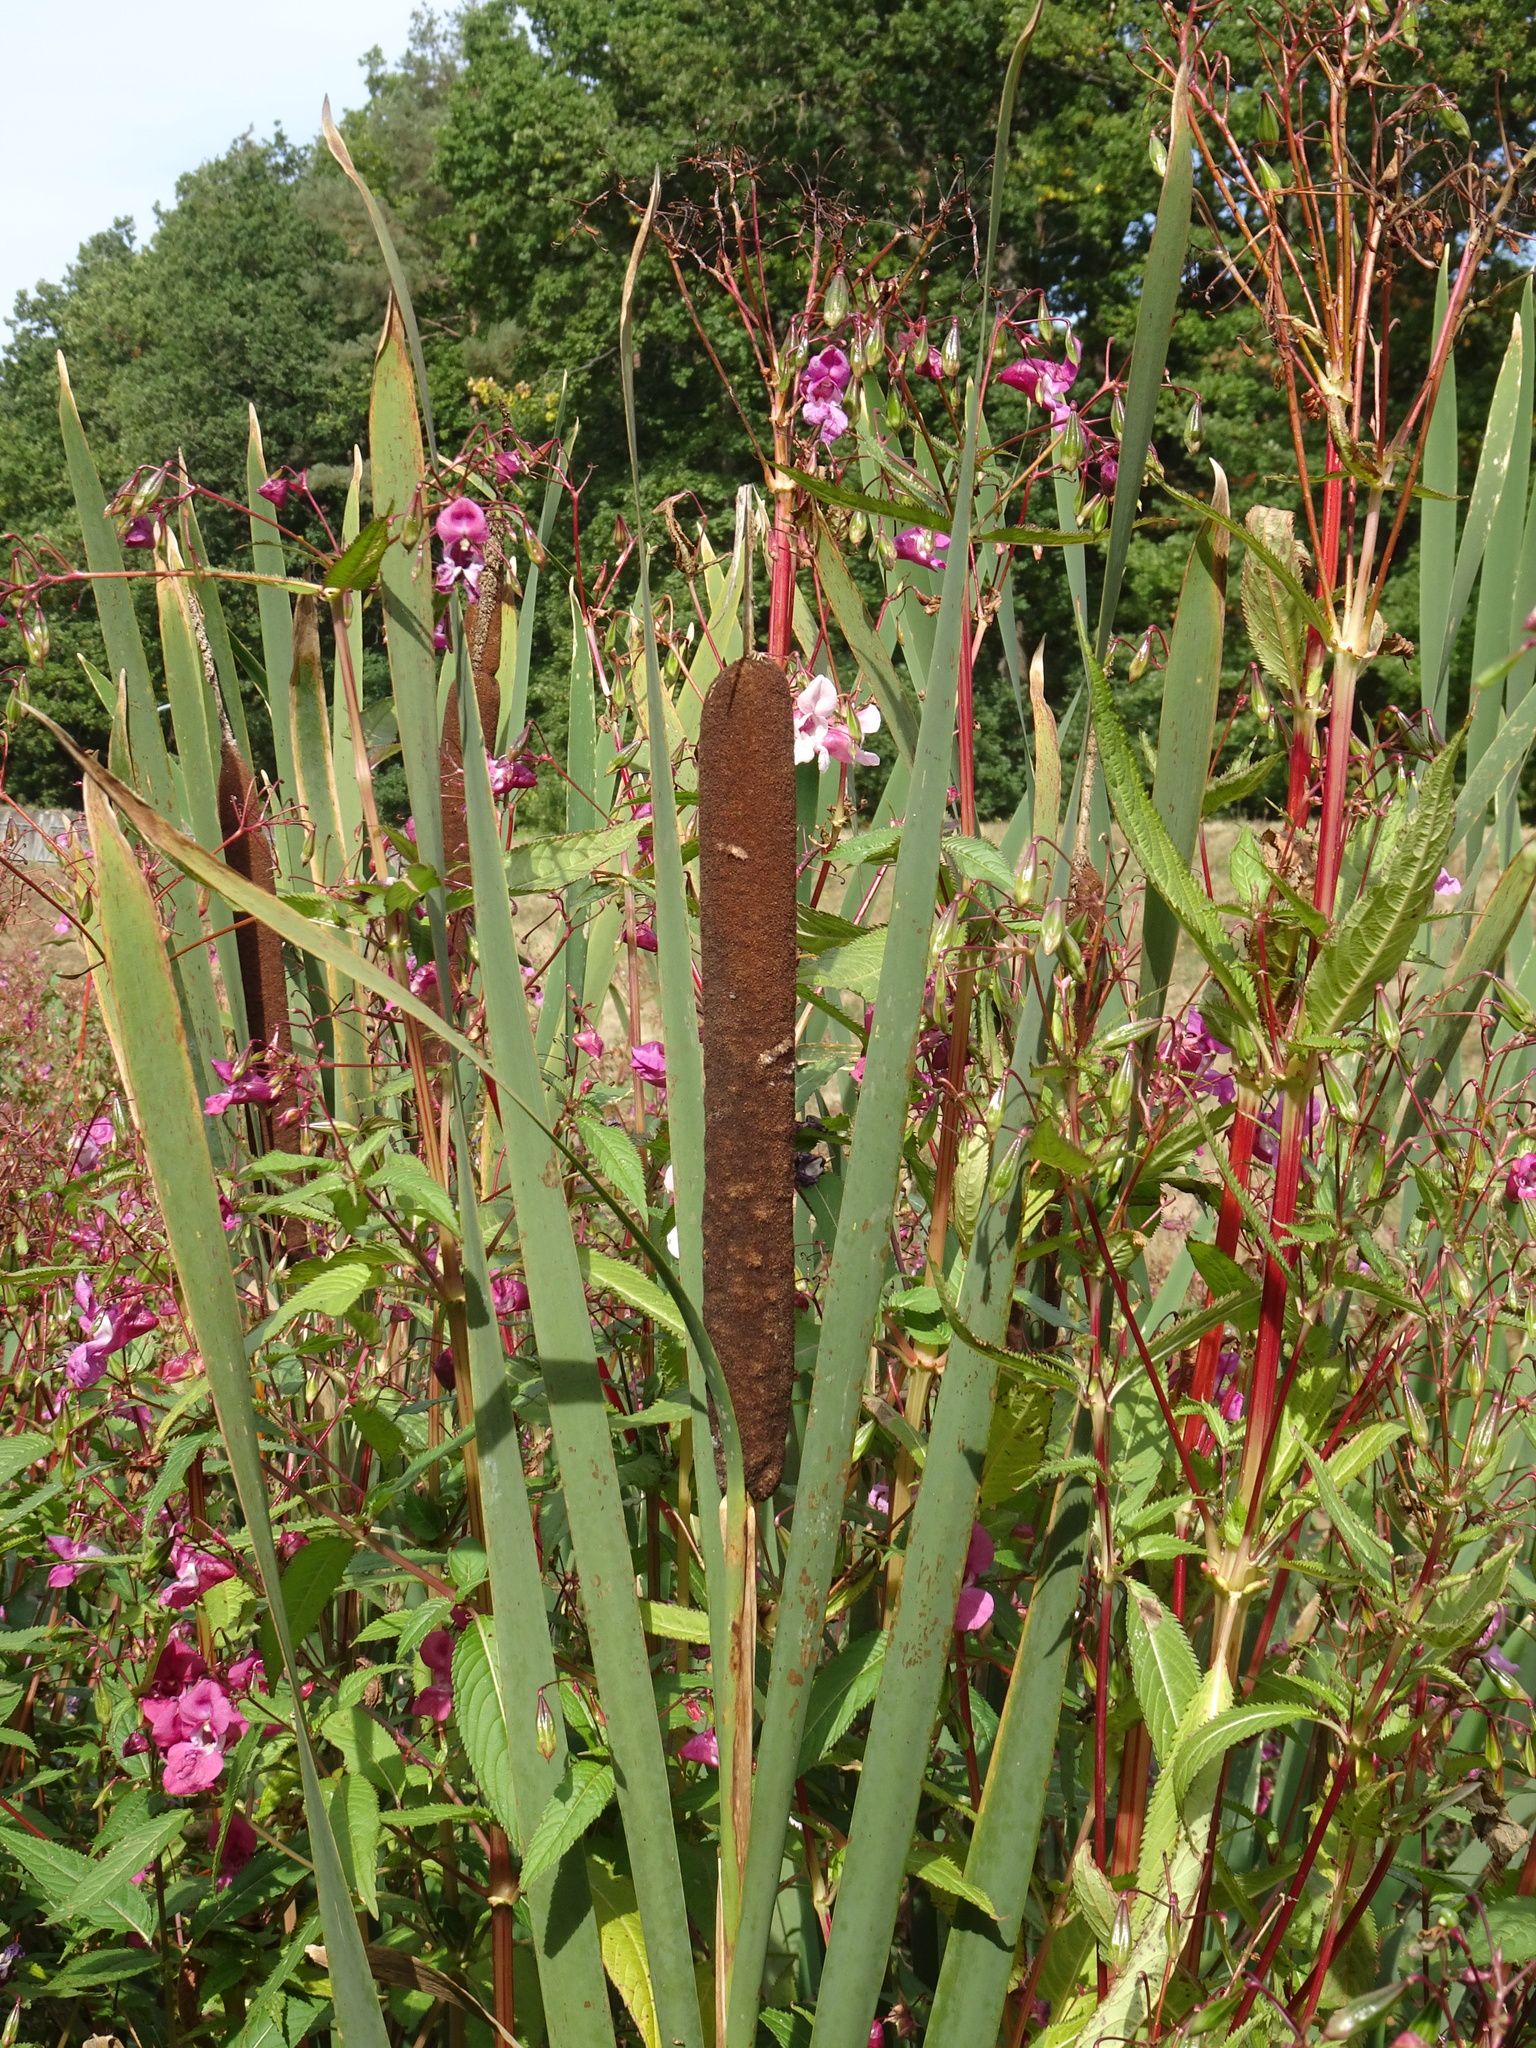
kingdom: Plantae
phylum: Tracheophyta
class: Liliopsida
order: Poales
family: Typhaceae
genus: Typha
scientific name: Typha latifolia
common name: Broadleaf cattail
